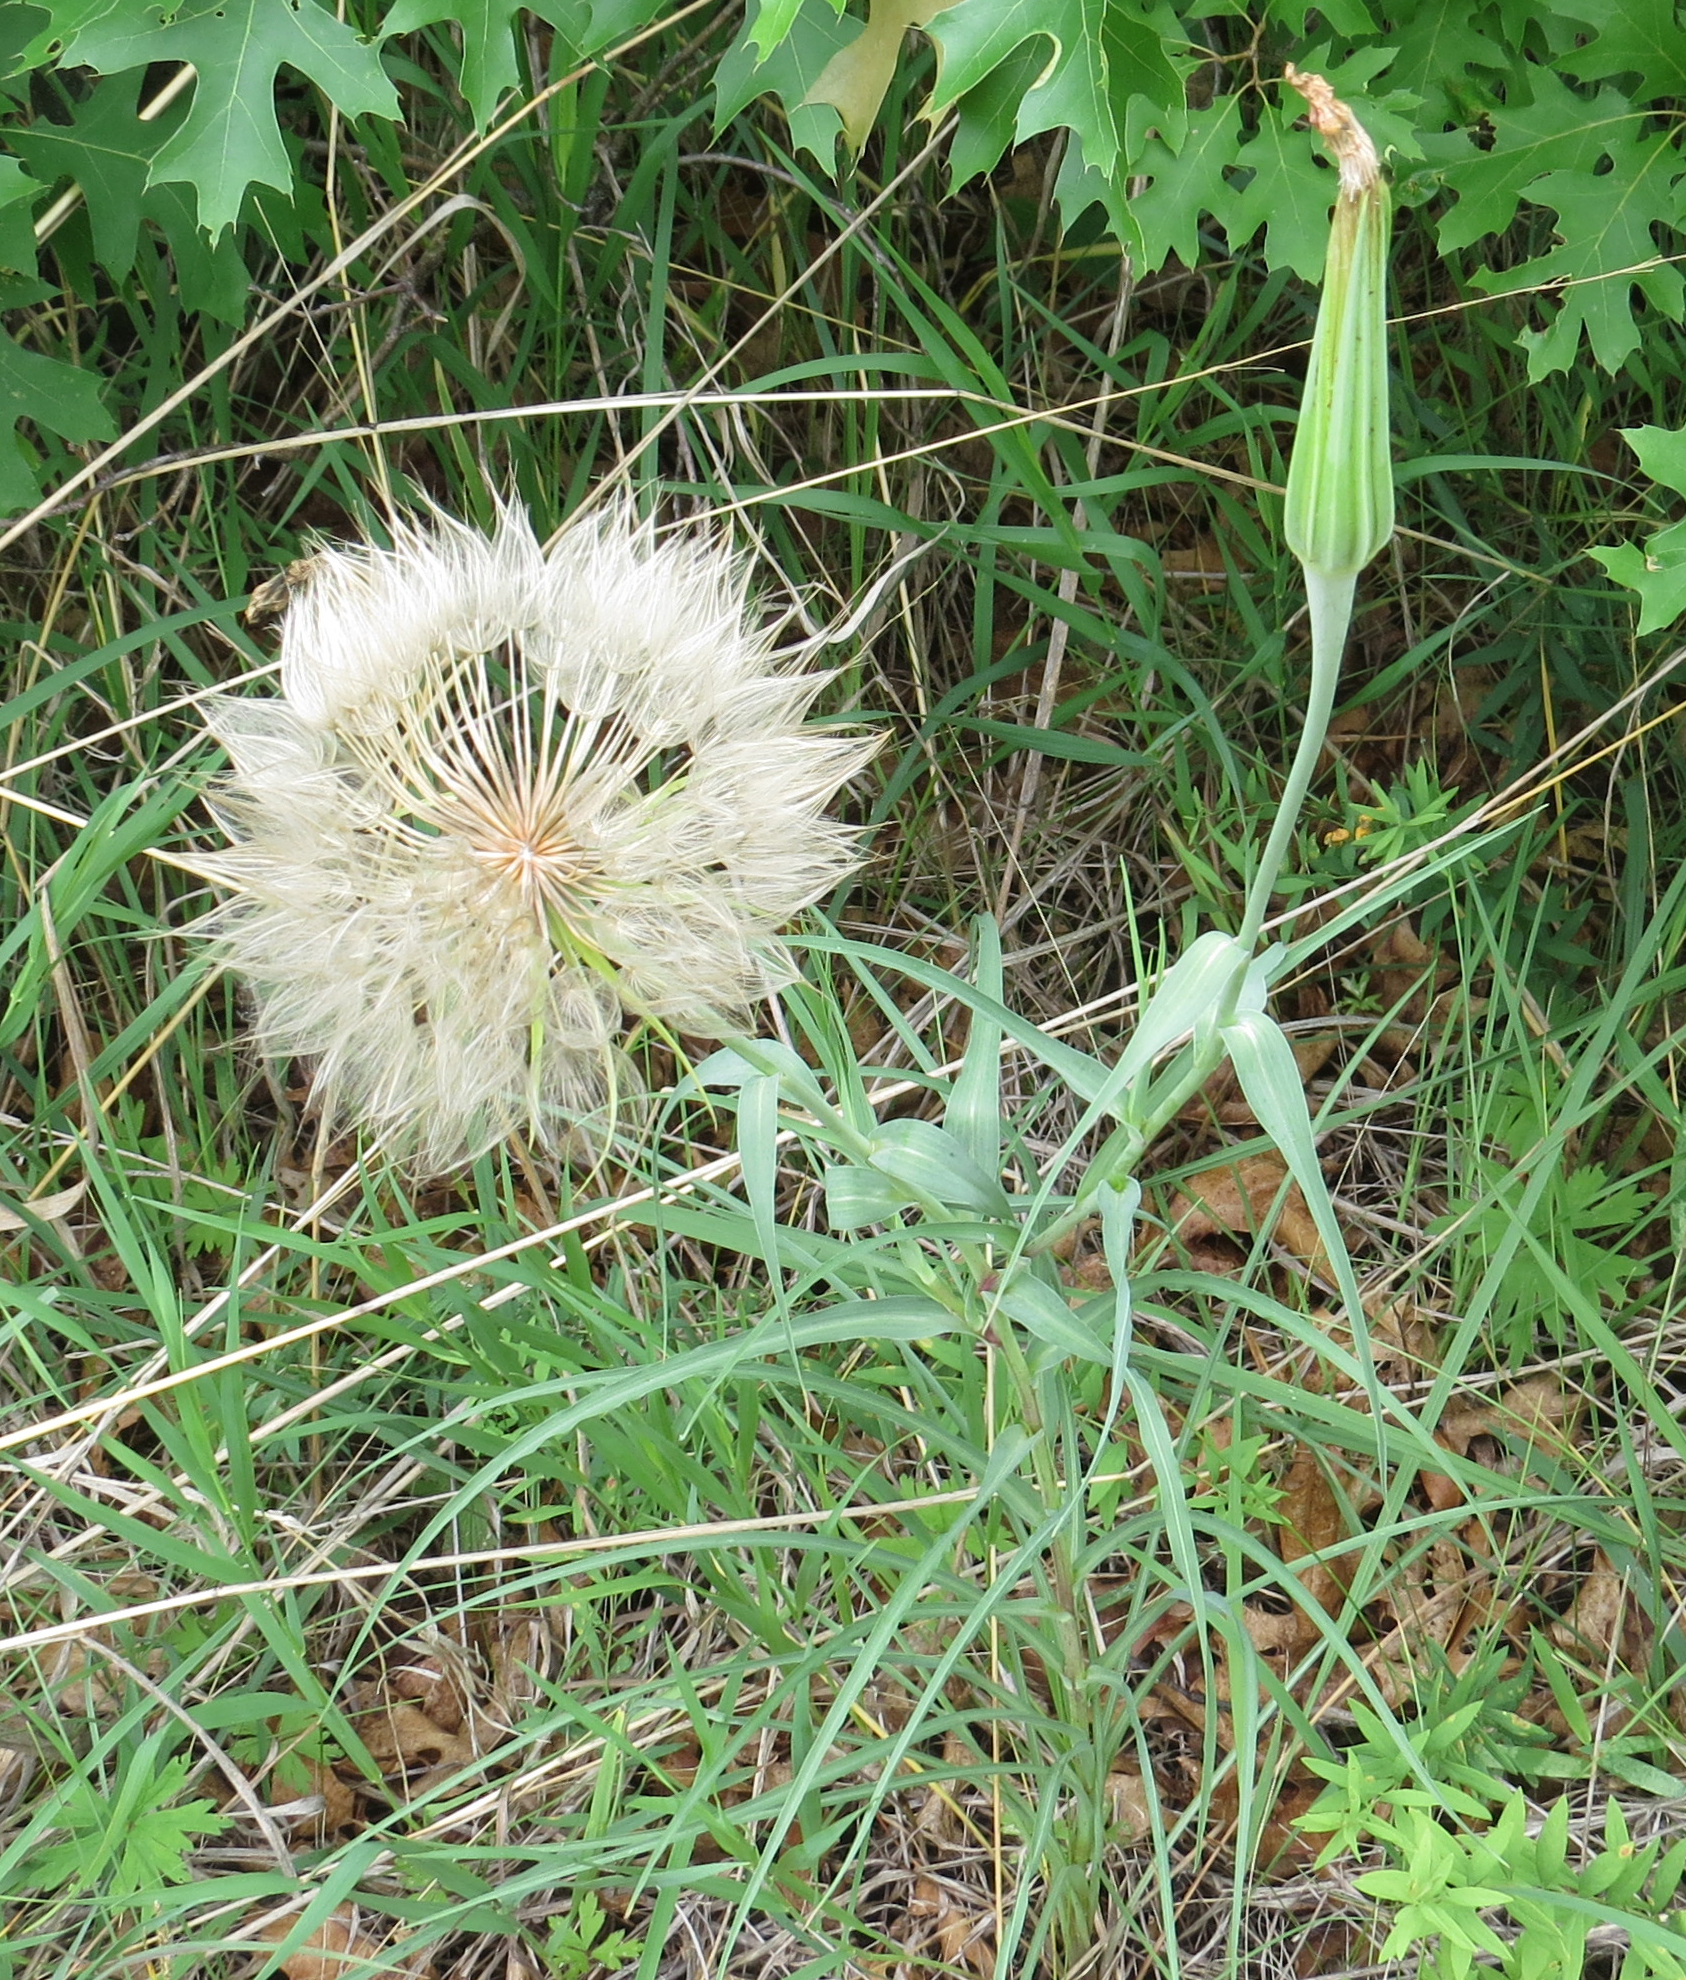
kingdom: Plantae
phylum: Tracheophyta
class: Magnoliopsida
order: Asterales
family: Asteraceae
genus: Tragopogon
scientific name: Tragopogon dubius
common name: Yellow salsify
